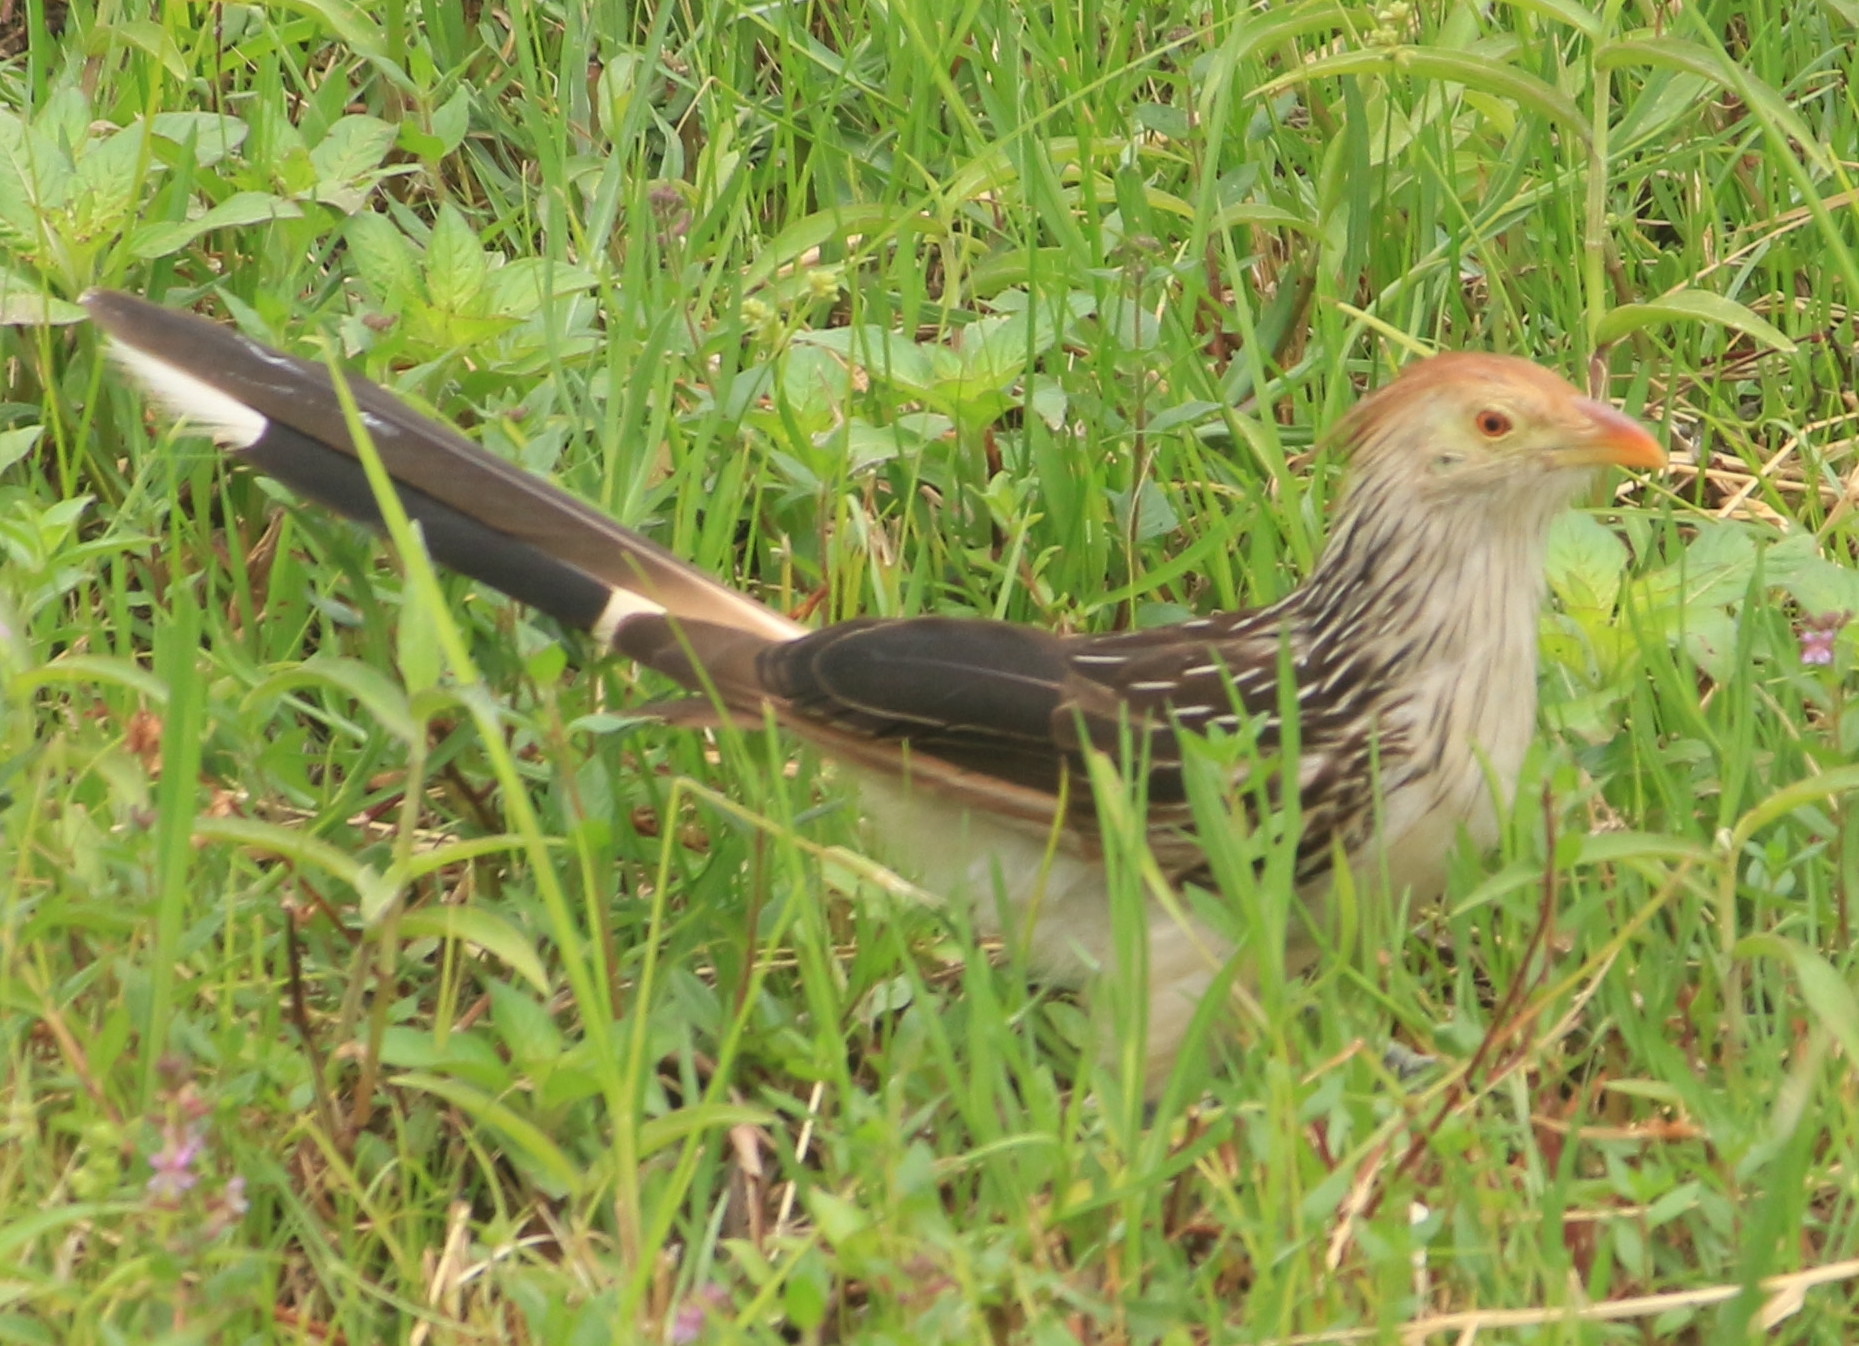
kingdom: Animalia
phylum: Chordata
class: Aves
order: Cuculiformes
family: Cuculidae
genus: Guira
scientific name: Guira guira
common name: Guira cuckoo
